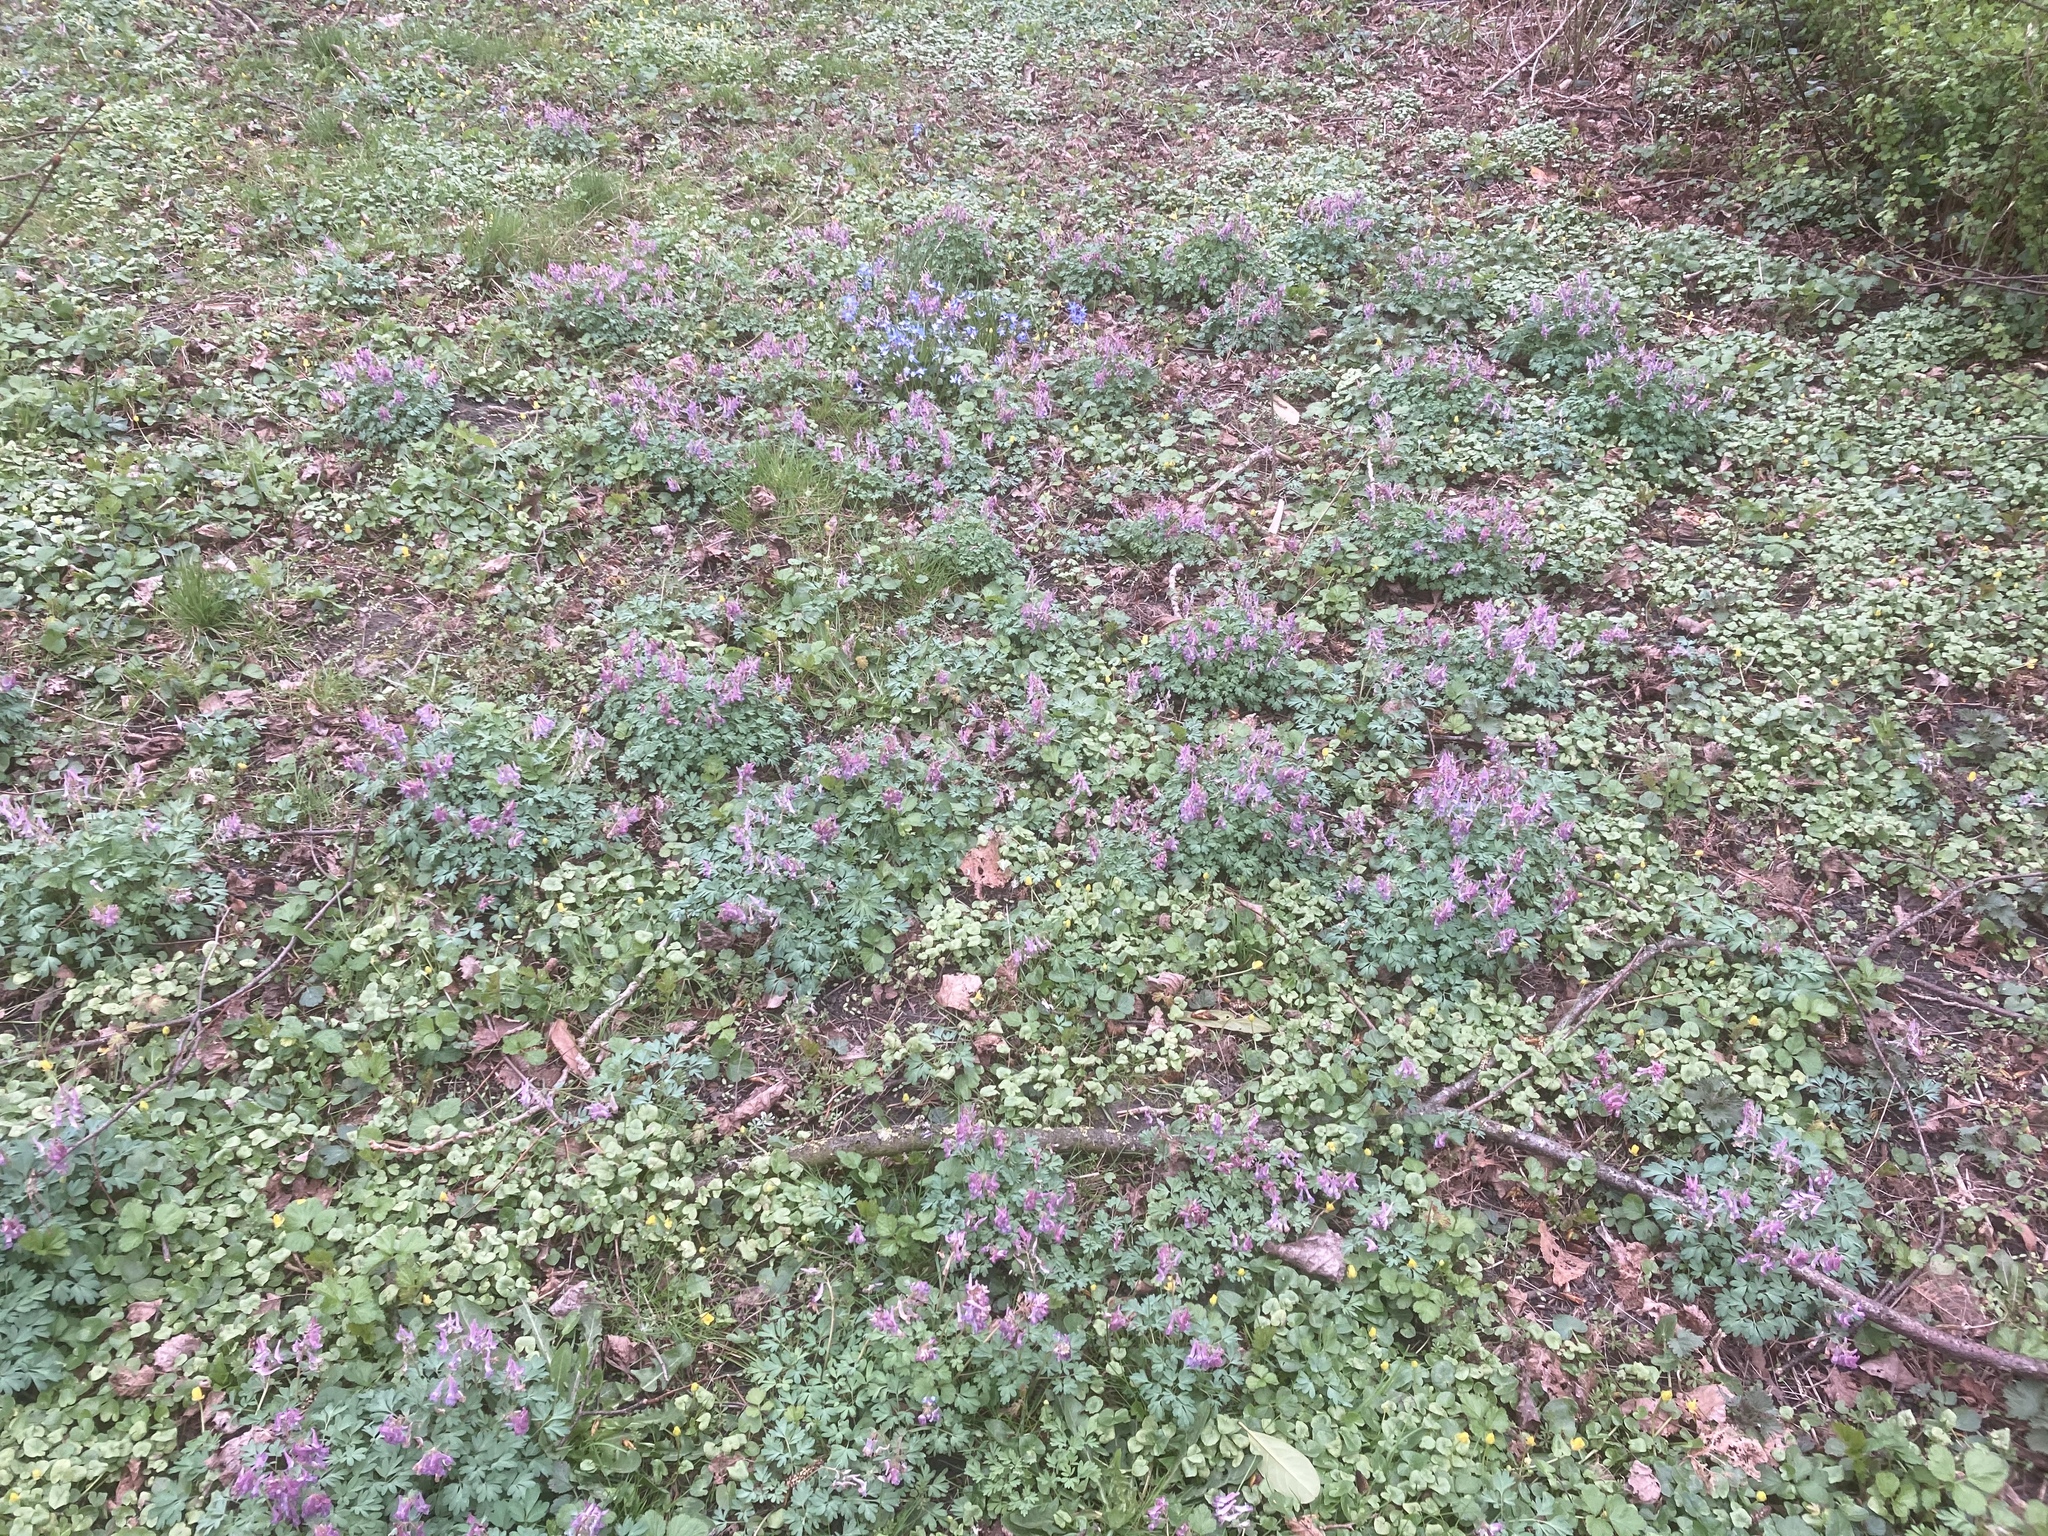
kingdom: Plantae
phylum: Tracheophyta
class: Magnoliopsida
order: Ranunculales
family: Papaveraceae
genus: Corydalis
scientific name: Corydalis solida
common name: Bird-in-a-bush
